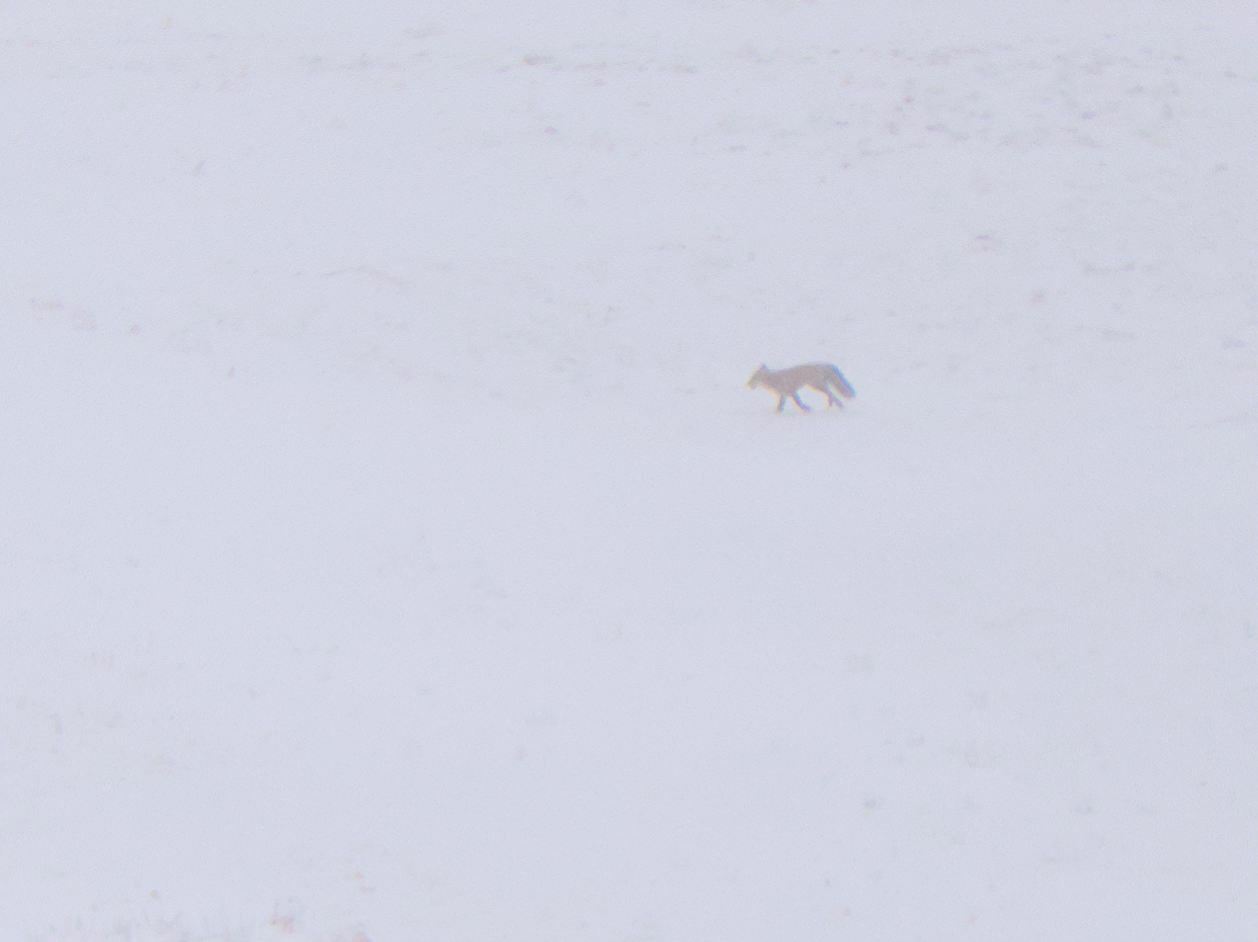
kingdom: Animalia
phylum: Chordata
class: Mammalia
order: Carnivora
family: Canidae
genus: Vulpes
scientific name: Vulpes vulpes
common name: Red fox
